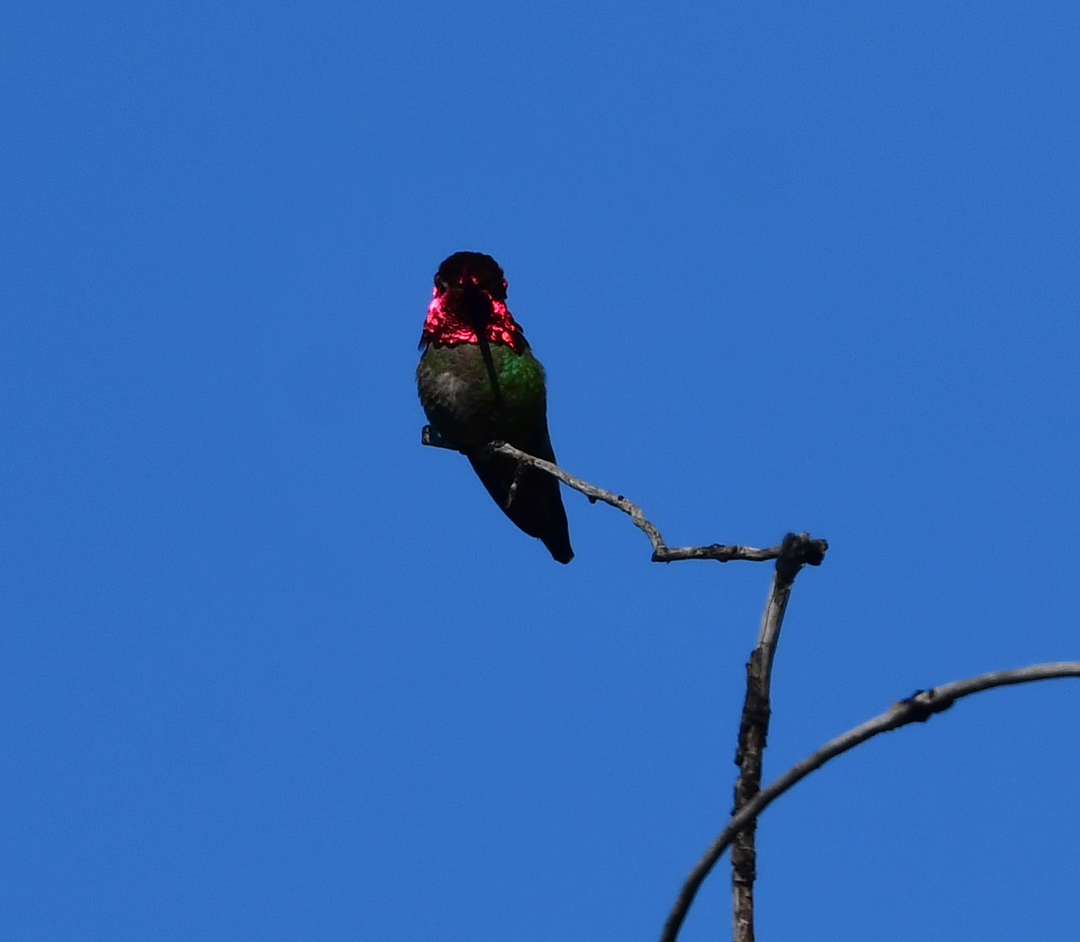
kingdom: Animalia
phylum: Chordata
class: Aves
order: Apodiformes
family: Trochilidae
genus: Calypte
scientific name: Calypte anna
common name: Anna's hummingbird
